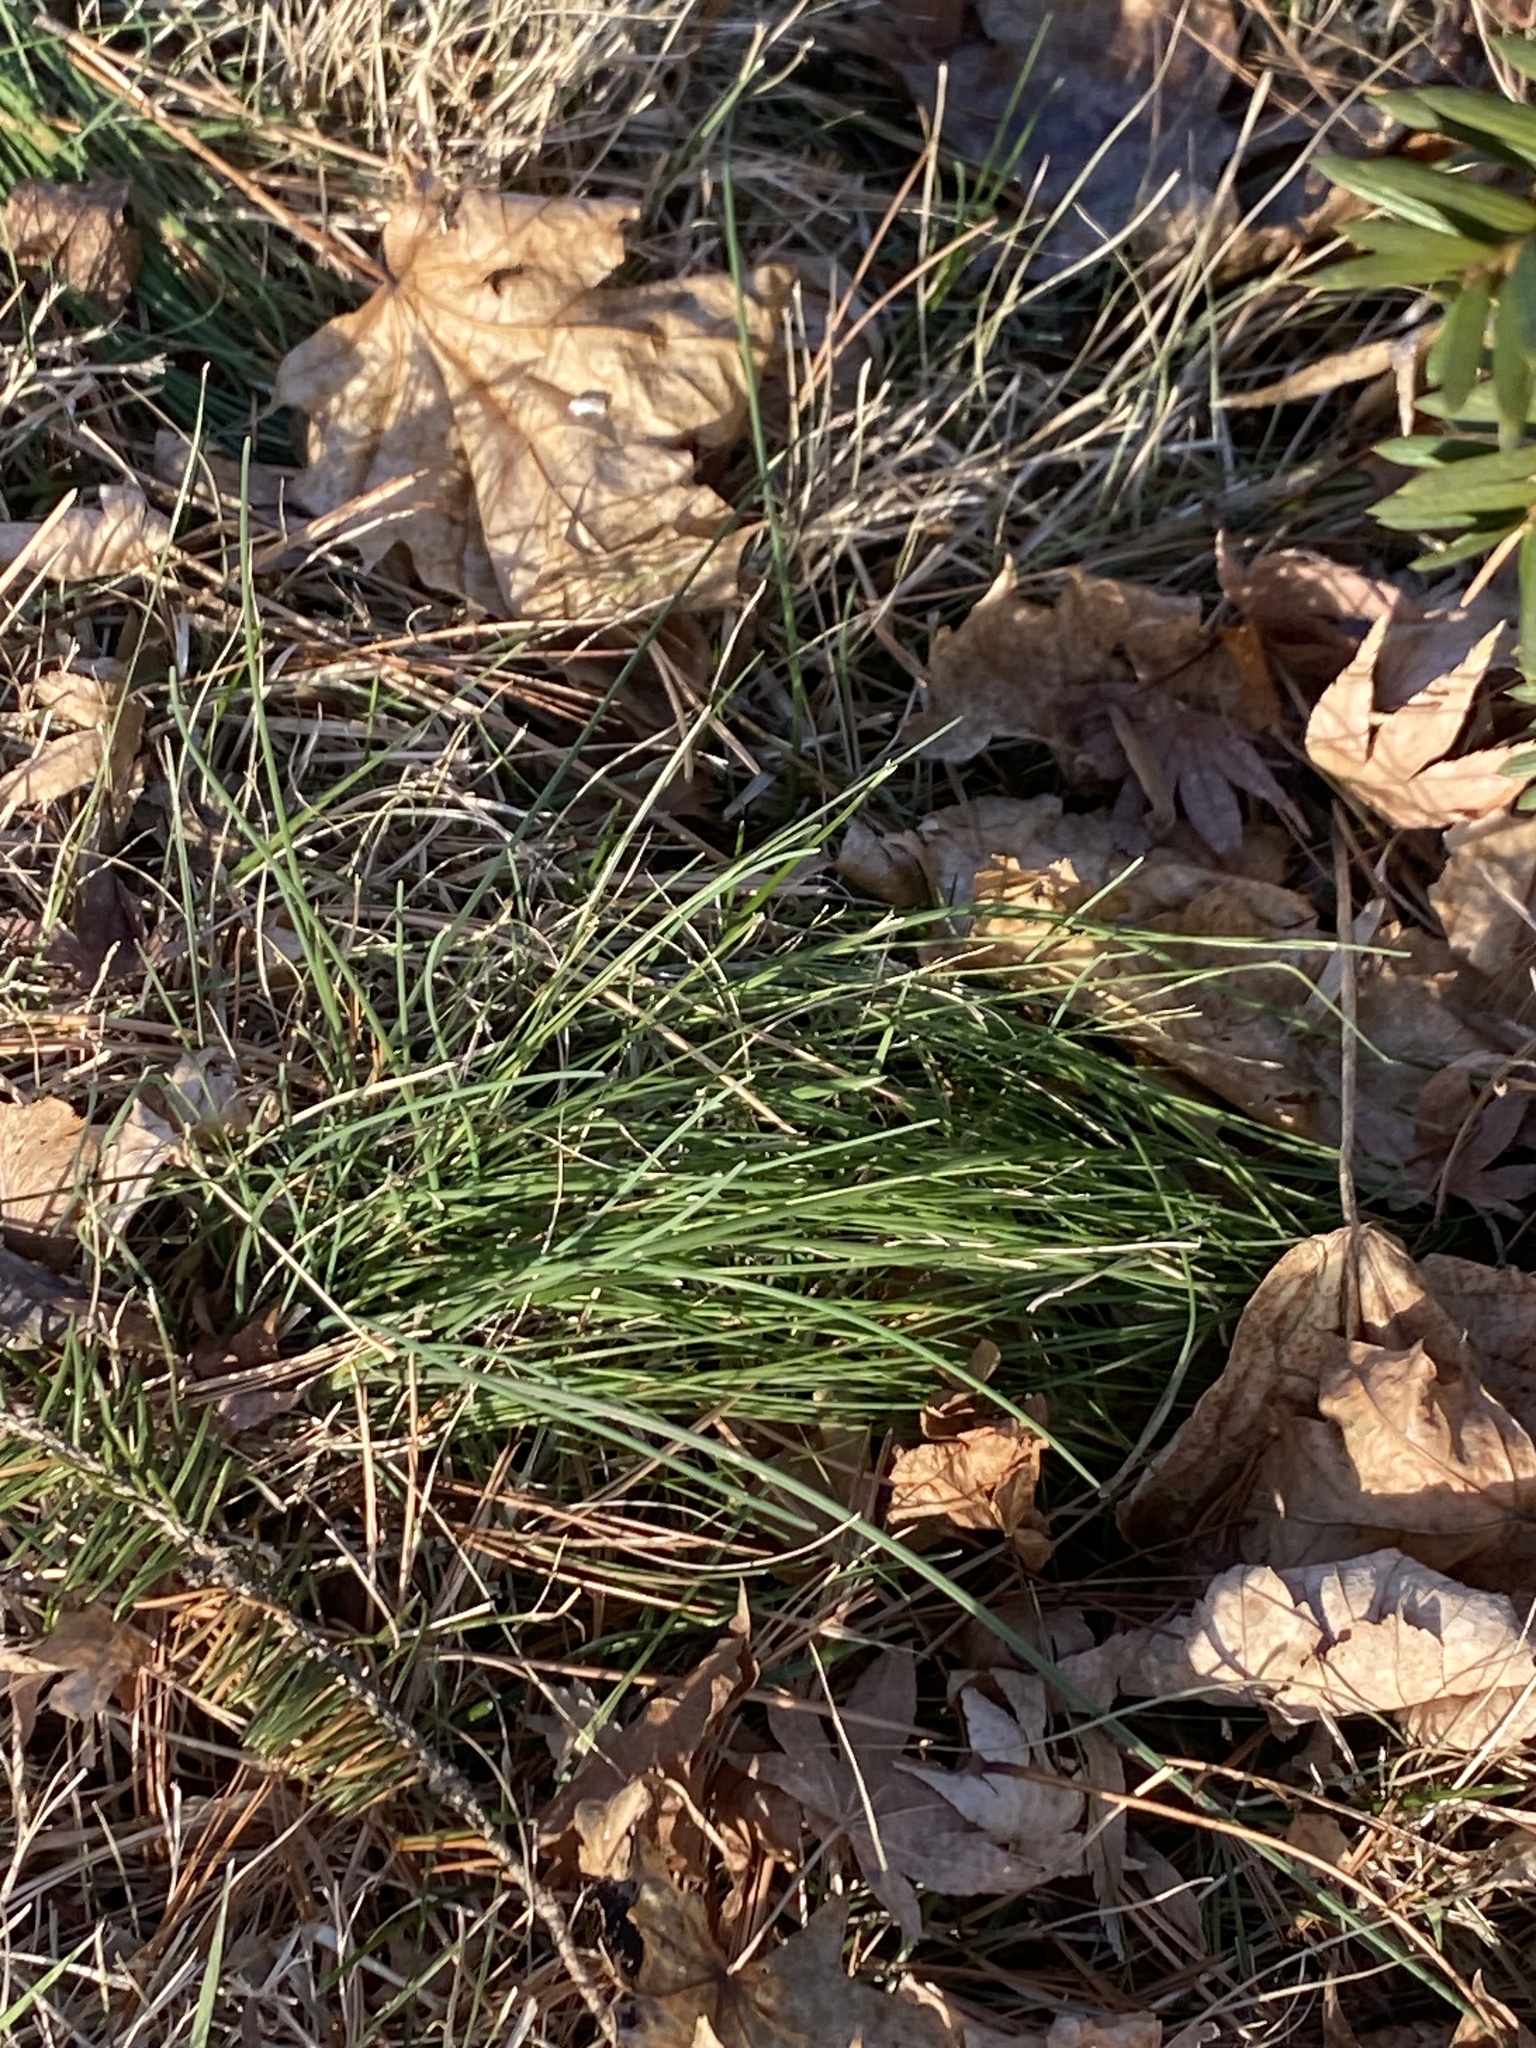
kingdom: Plantae
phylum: Tracheophyta
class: Liliopsida
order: Asparagales
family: Amaryllidaceae
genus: Allium
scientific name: Allium vineale
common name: Crow garlic
